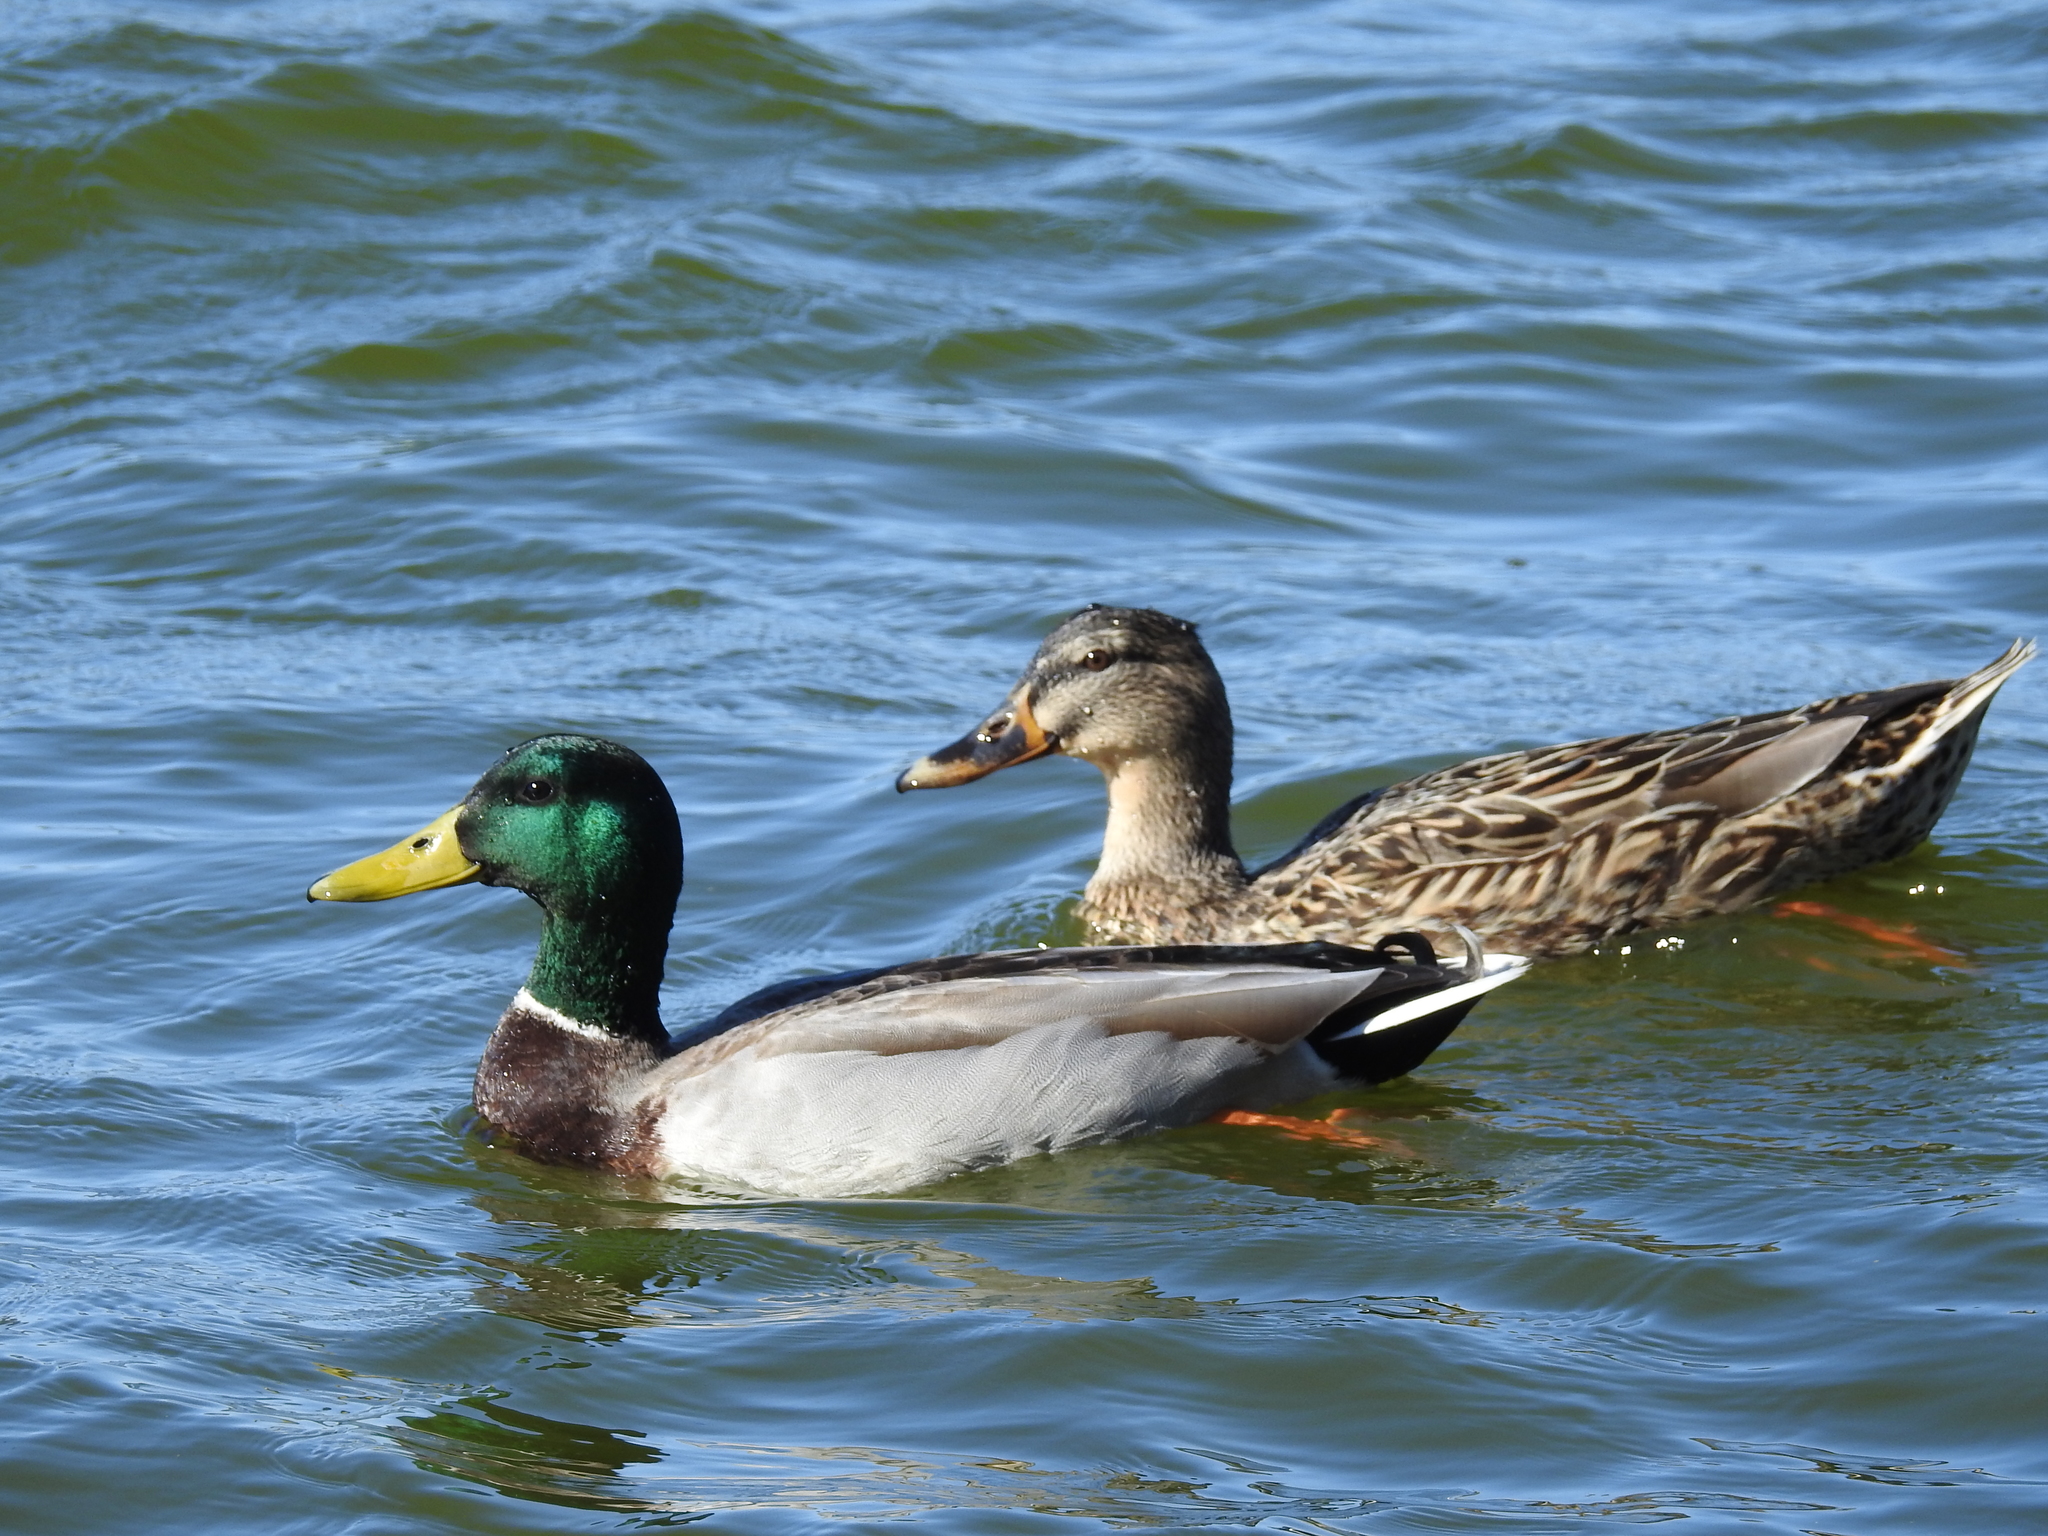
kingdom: Animalia
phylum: Chordata
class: Aves
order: Anseriformes
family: Anatidae
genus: Anas
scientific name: Anas platyrhynchos
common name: Mallard
